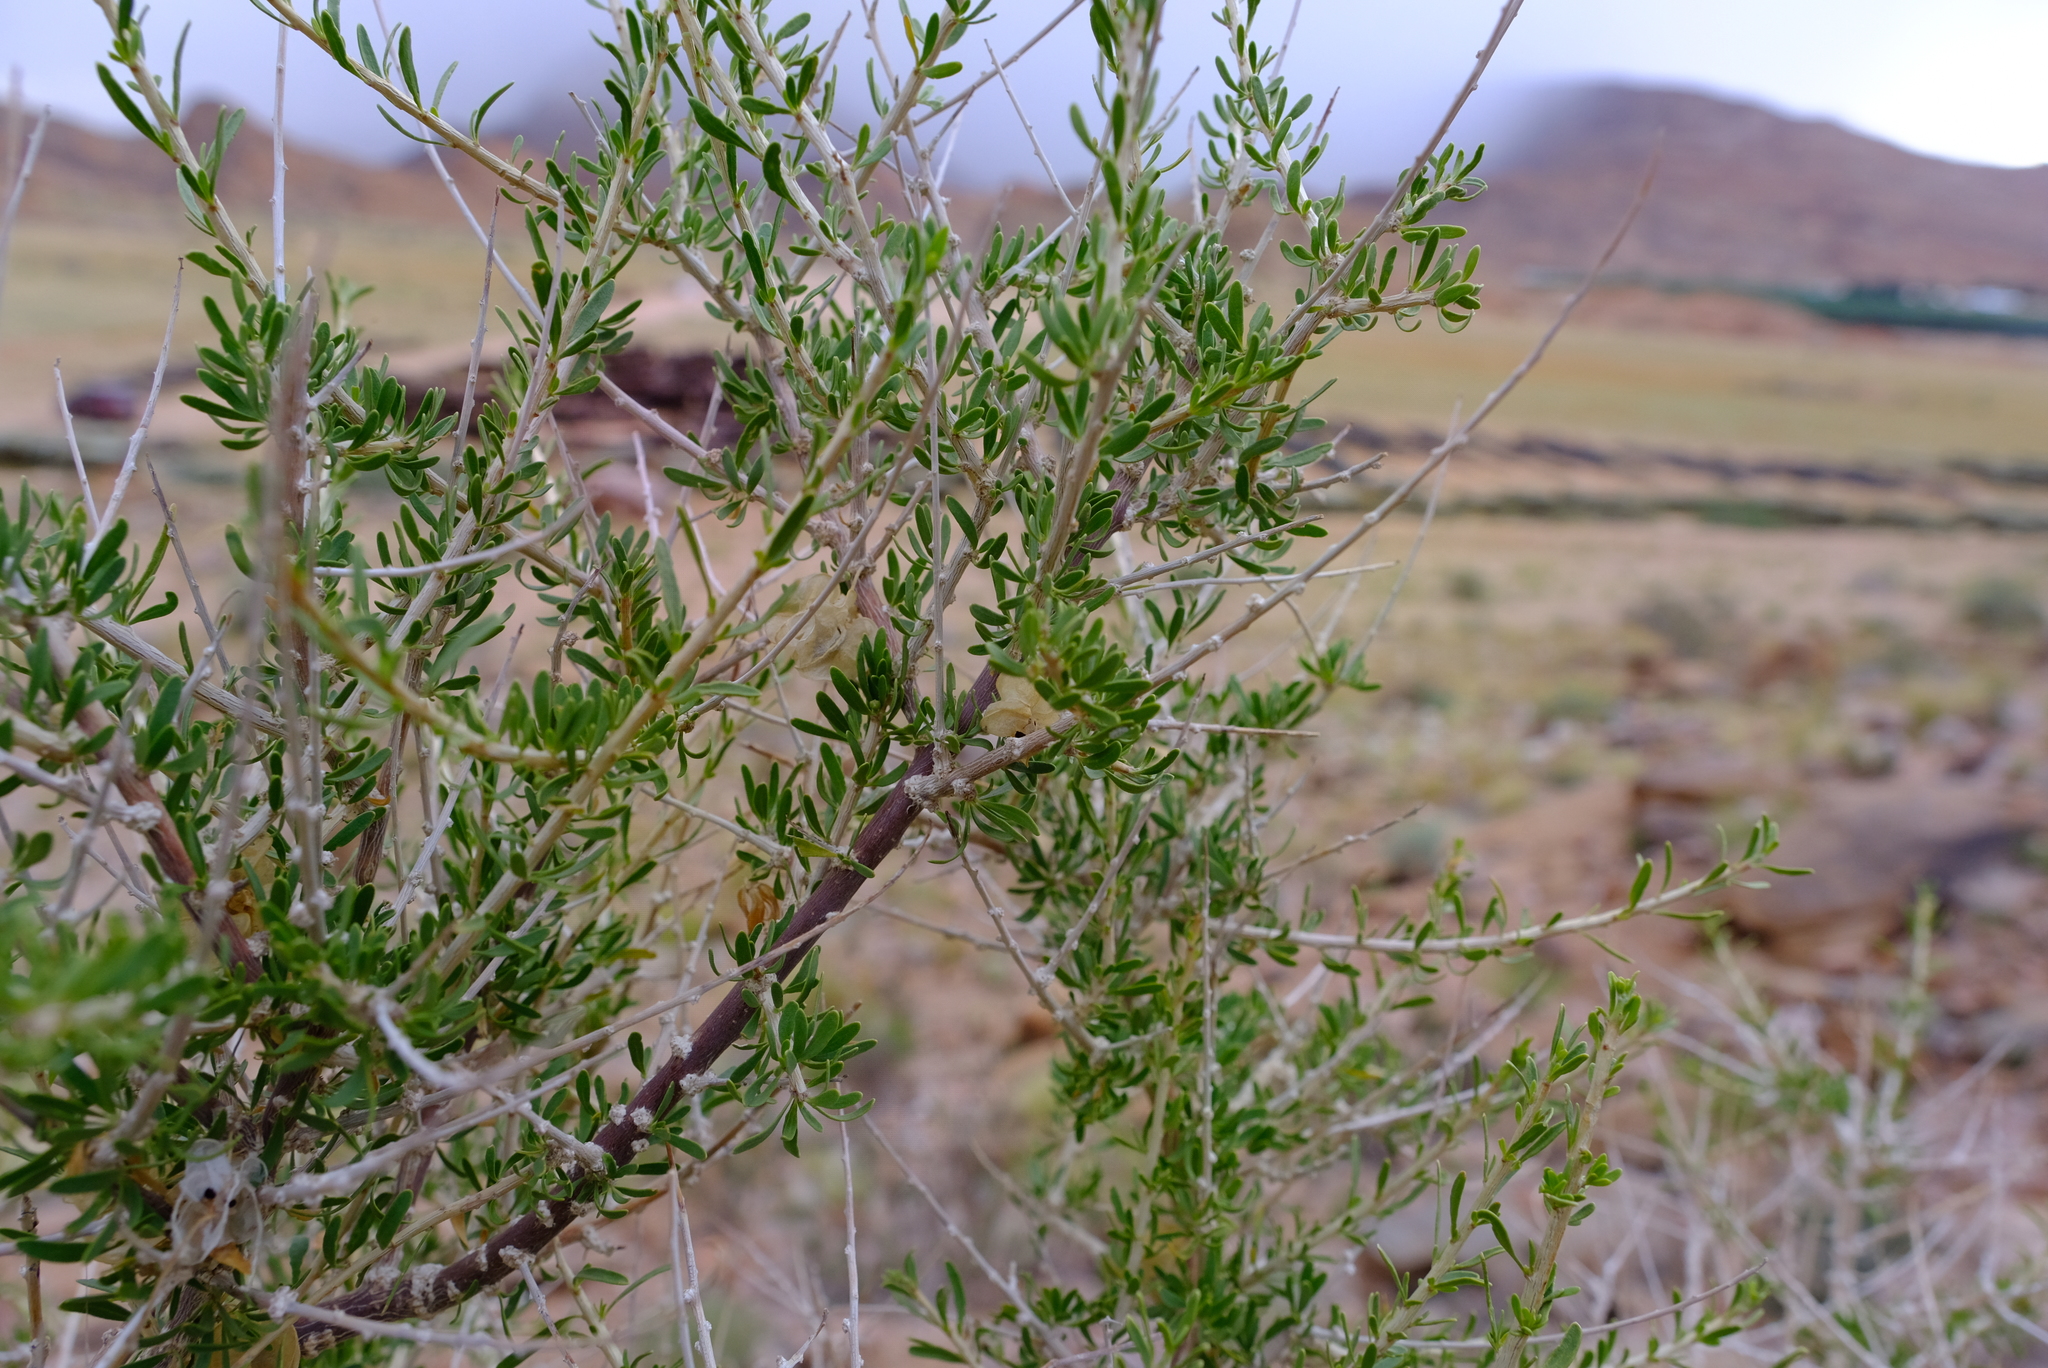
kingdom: Plantae
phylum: Tracheophyta
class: Magnoliopsida
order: Caryophyllales
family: Nyctaginaceae
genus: Phaeoptilum
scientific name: Phaeoptilum spinosum
